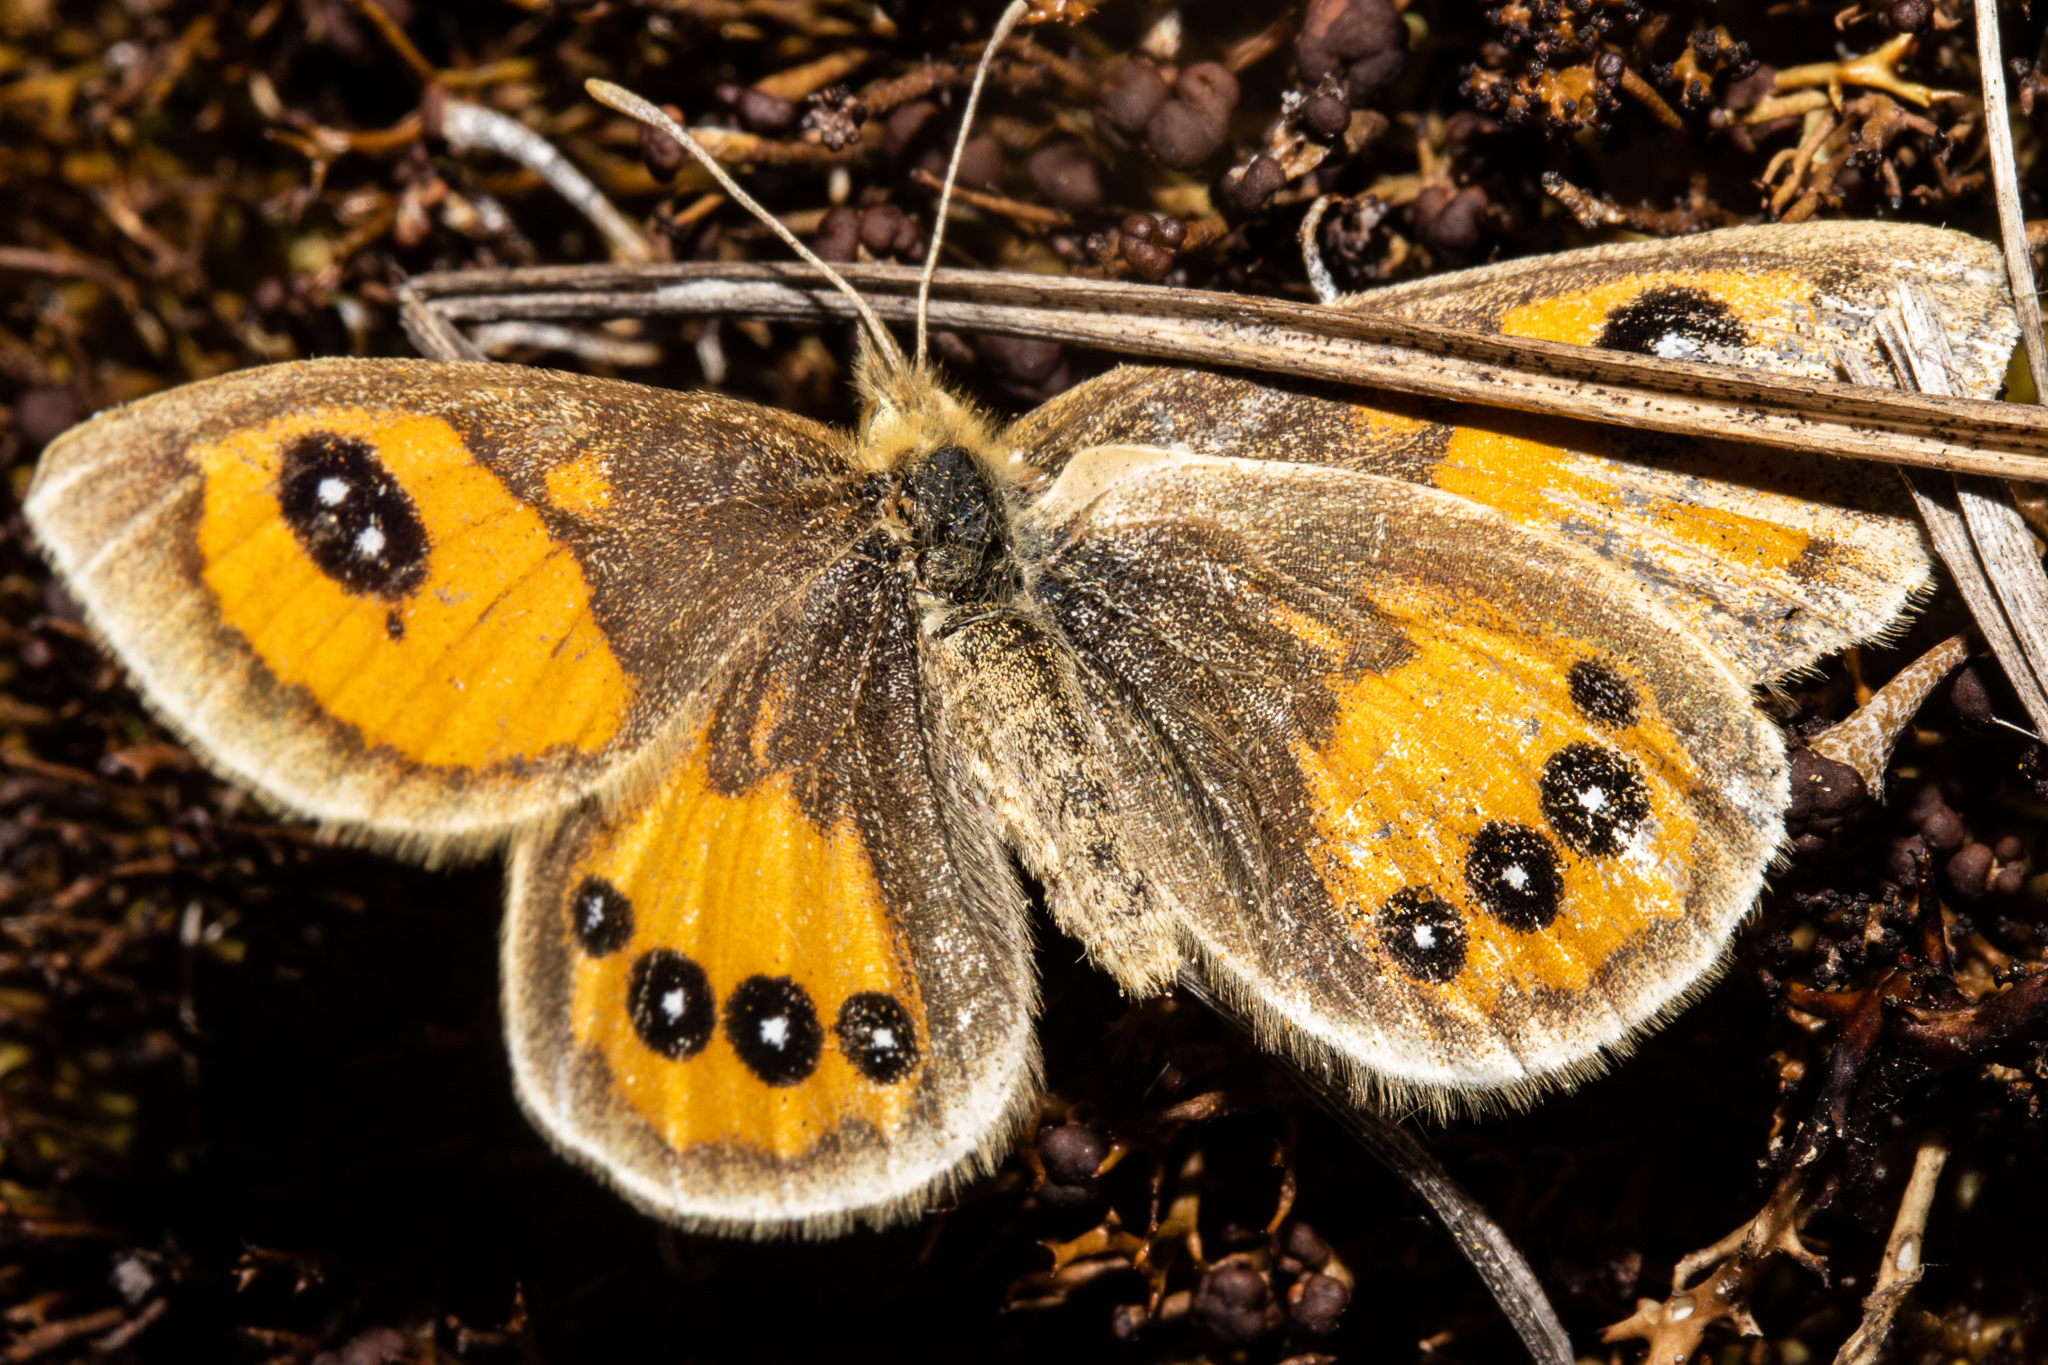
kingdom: Animalia
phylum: Arthropoda
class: Insecta
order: Lepidoptera
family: Nymphalidae
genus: Argyrophenga
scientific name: Argyrophenga antipodum
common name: Common tussock butterfly
